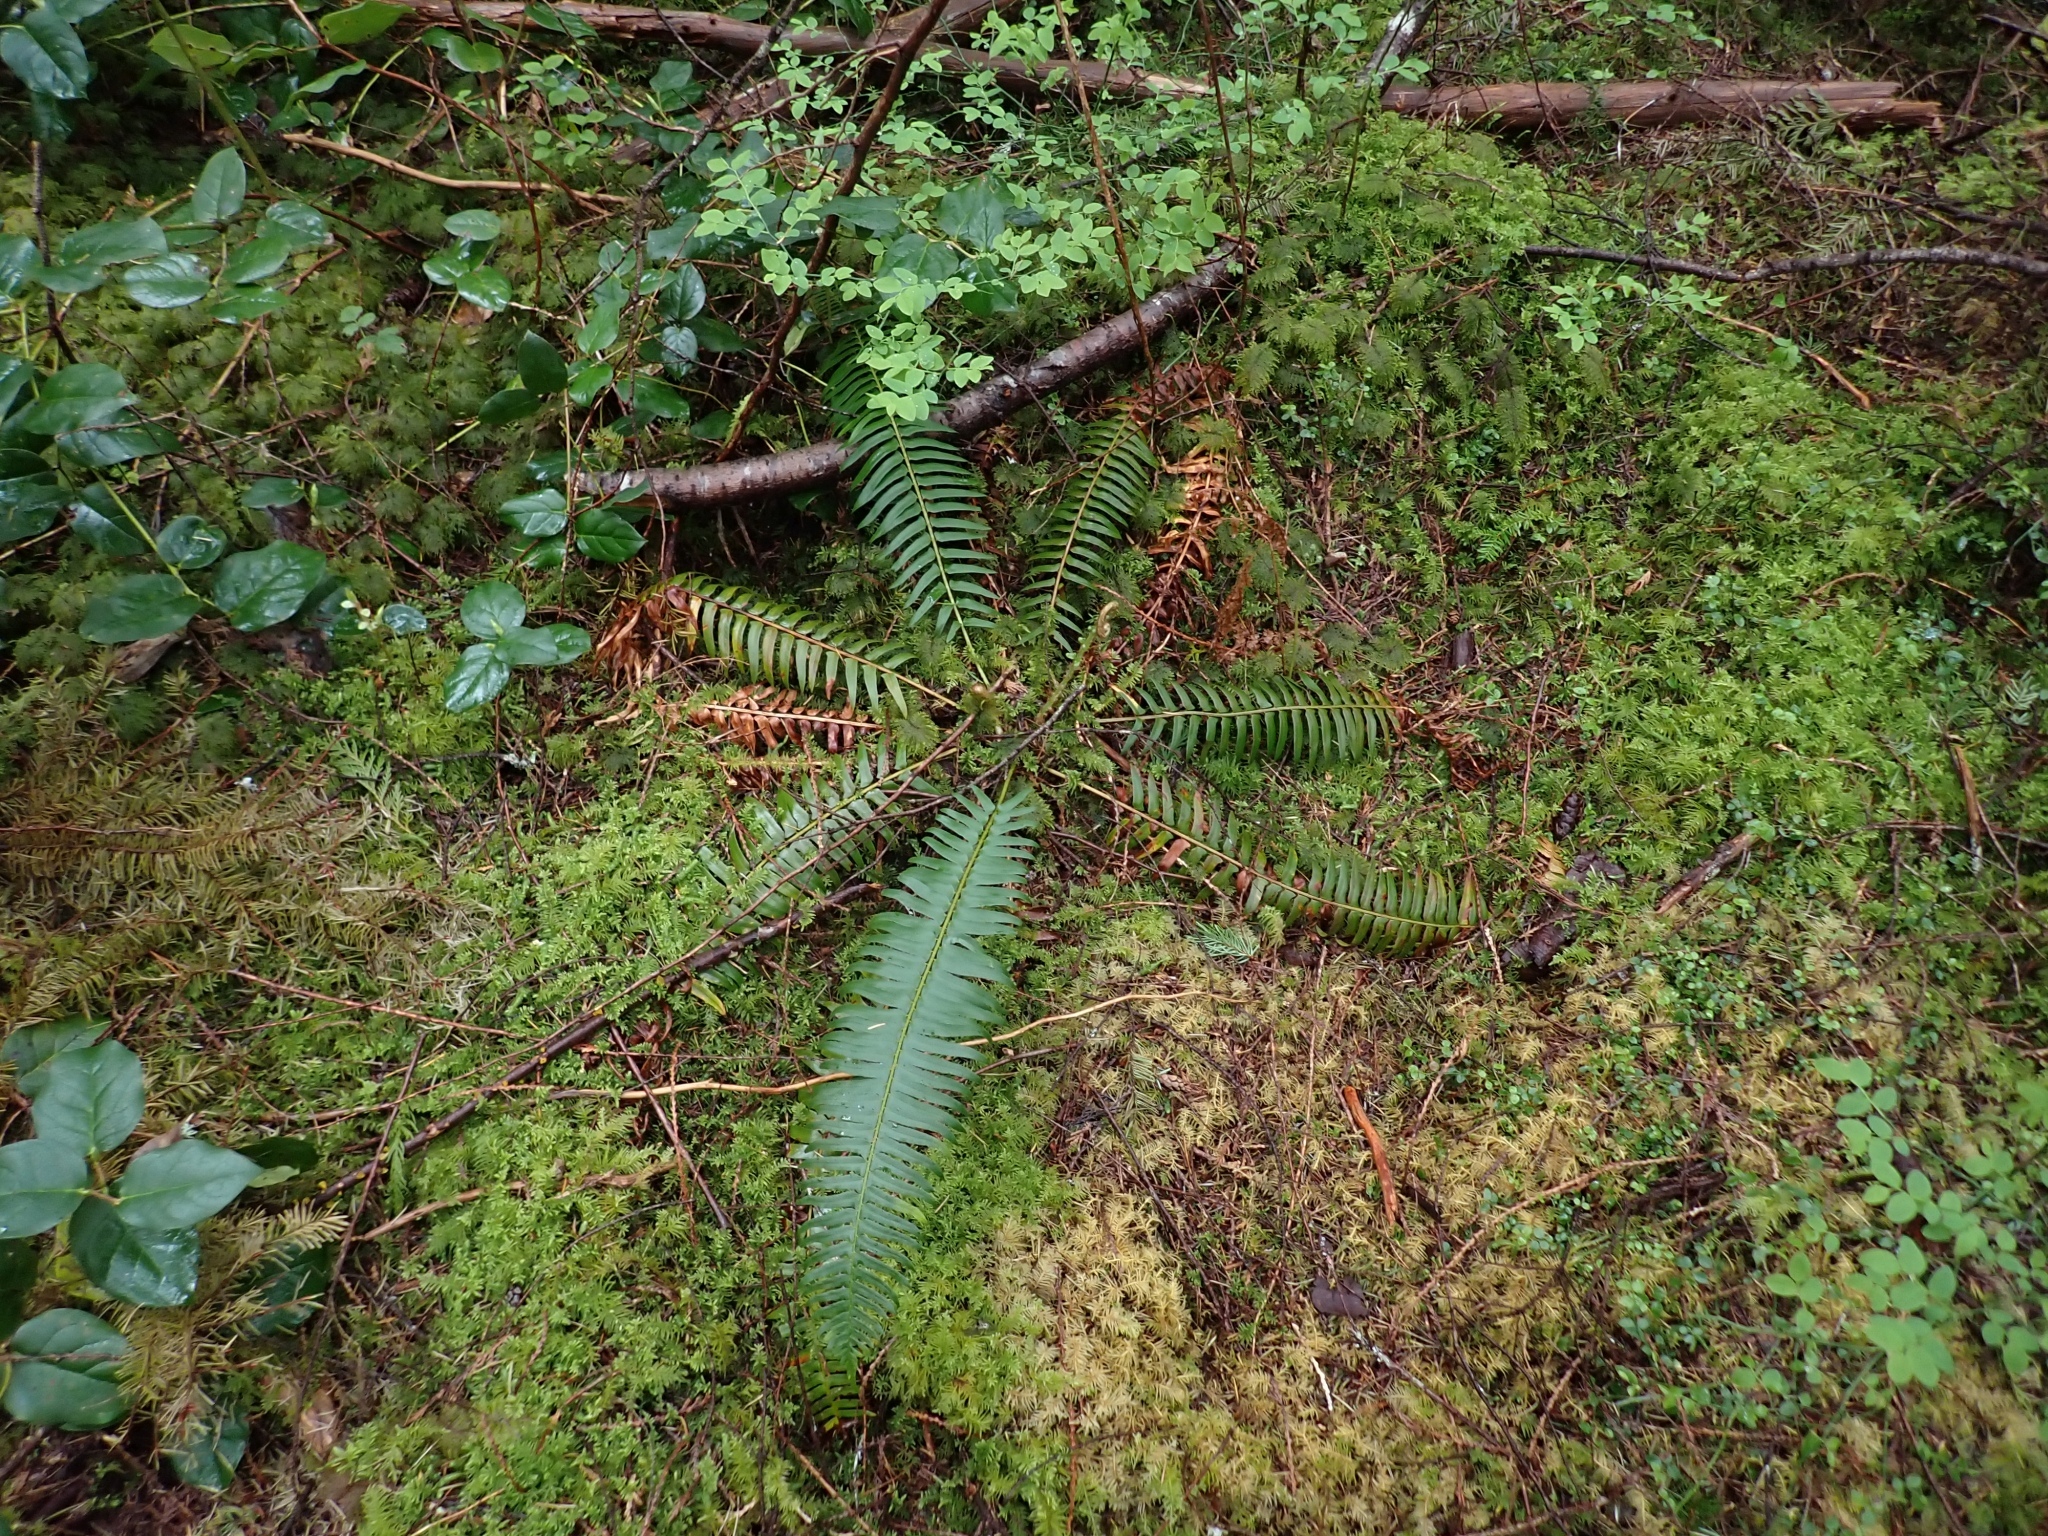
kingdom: Plantae
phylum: Tracheophyta
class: Polypodiopsida
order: Polypodiales
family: Dryopteridaceae
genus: Polystichum
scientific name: Polystichum munitum
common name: Western sword-fern
